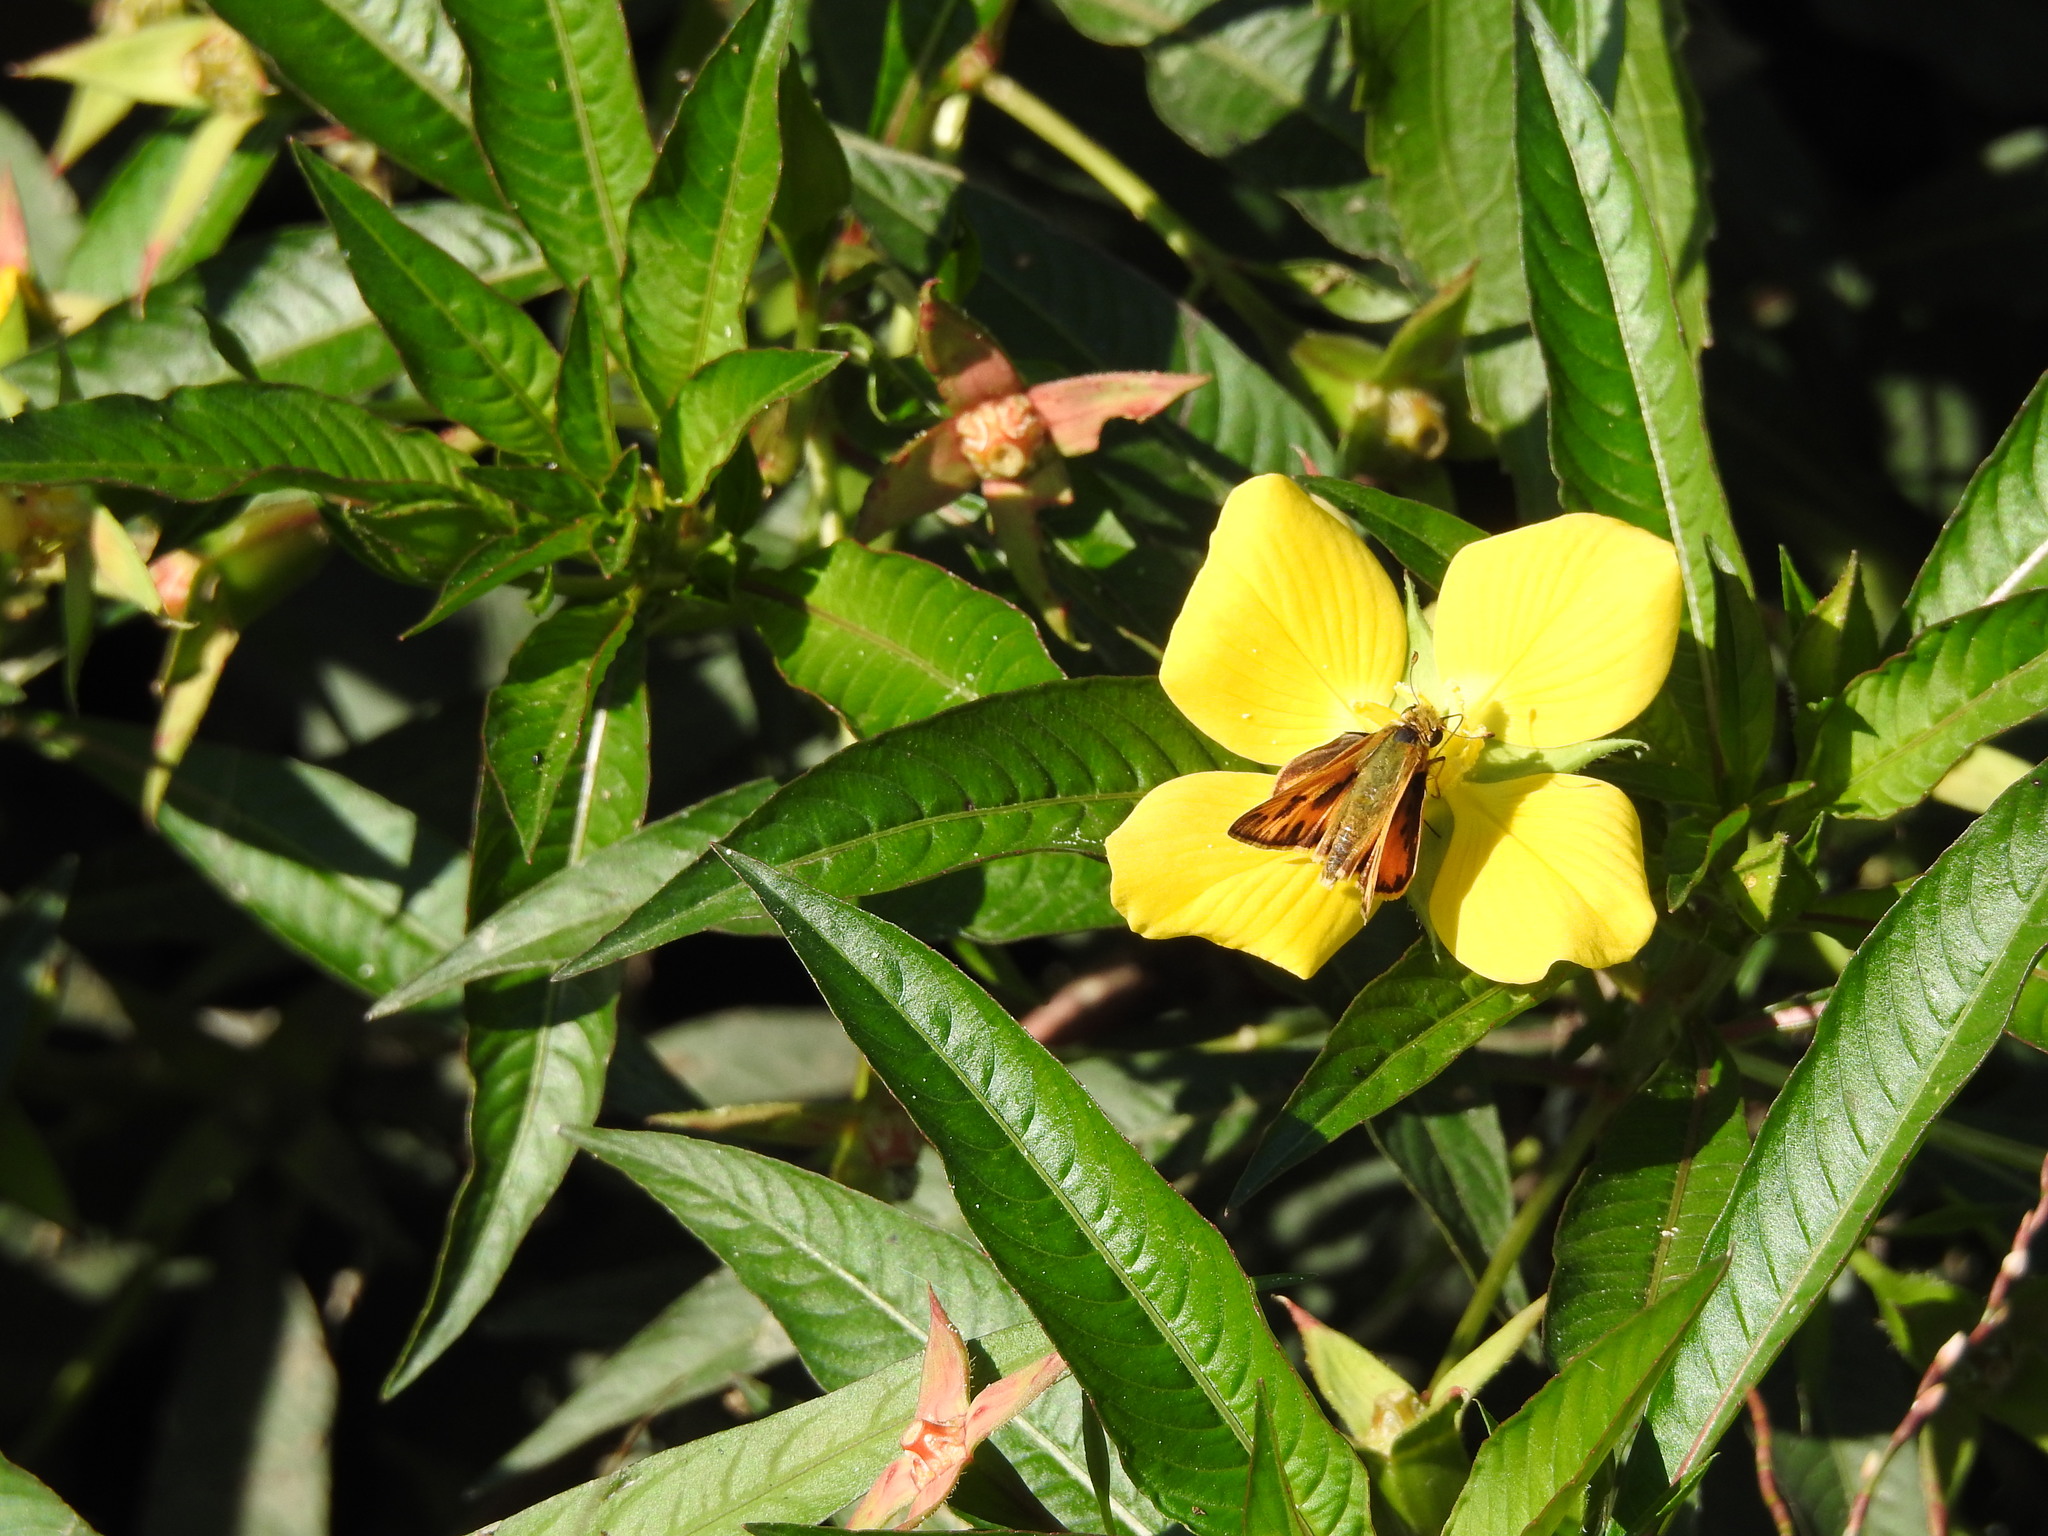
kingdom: Animalia
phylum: Arthropoda
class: Insecta
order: Lepidoptera
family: Hesperiidae
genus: Hylephila
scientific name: Hylephila phyleus
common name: Fiery skipper
